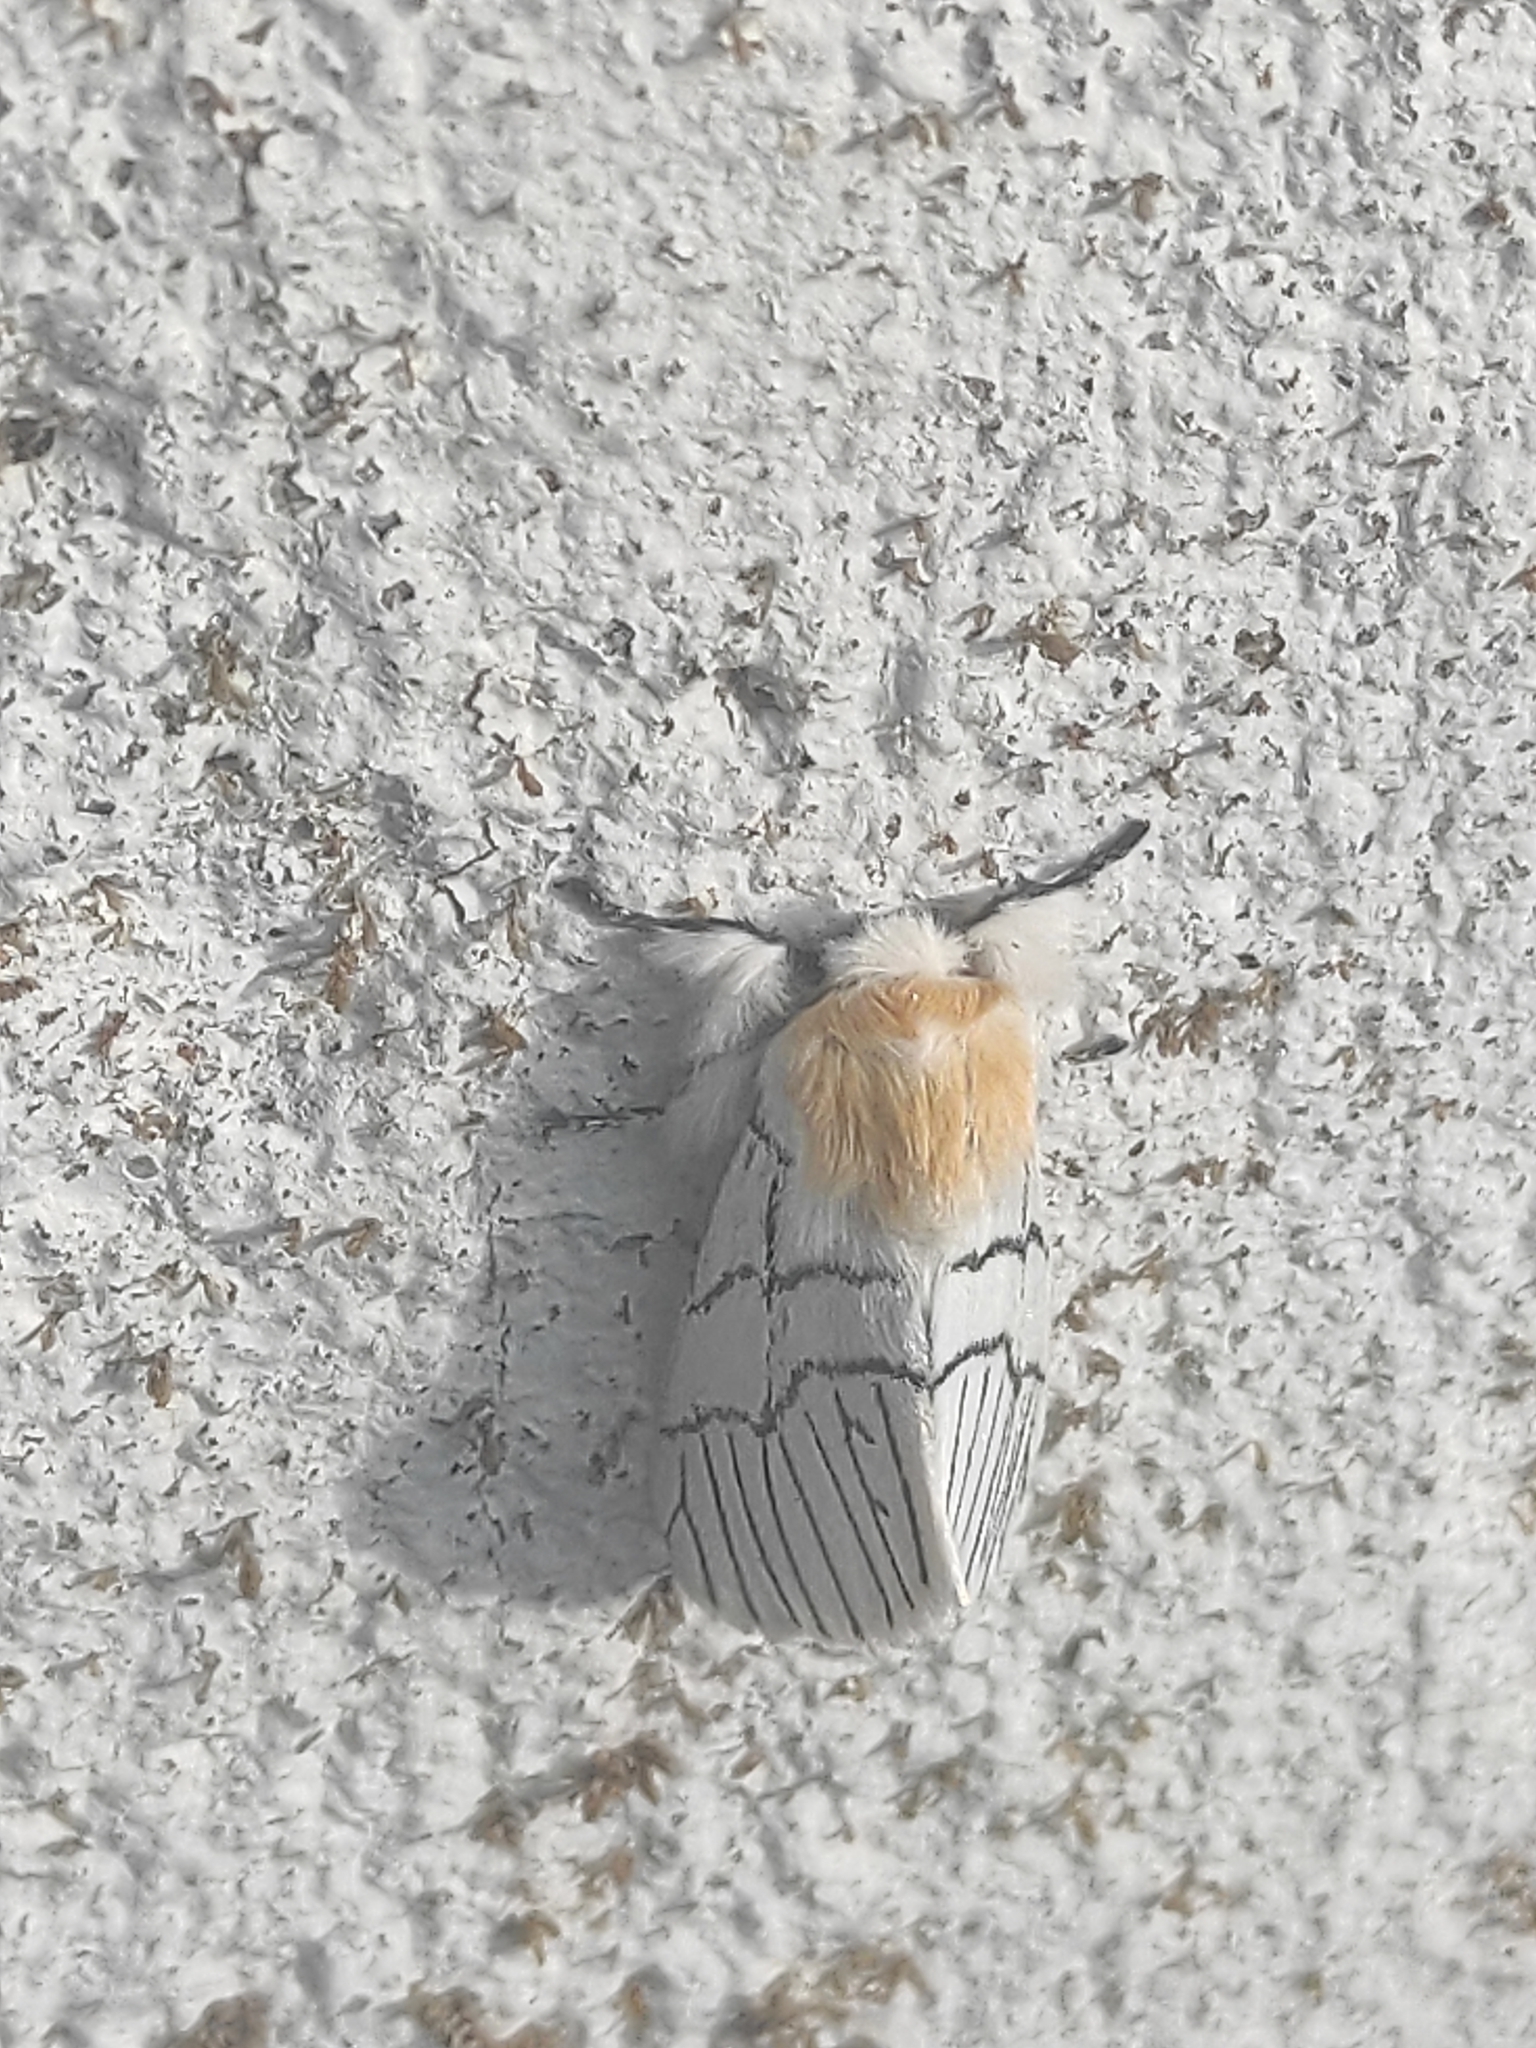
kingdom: Animalia
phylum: Arthropoda
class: Insecta
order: Lepidoptera
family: Notodontidae
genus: Oligoclona
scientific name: Oligoclona chrysolopha
